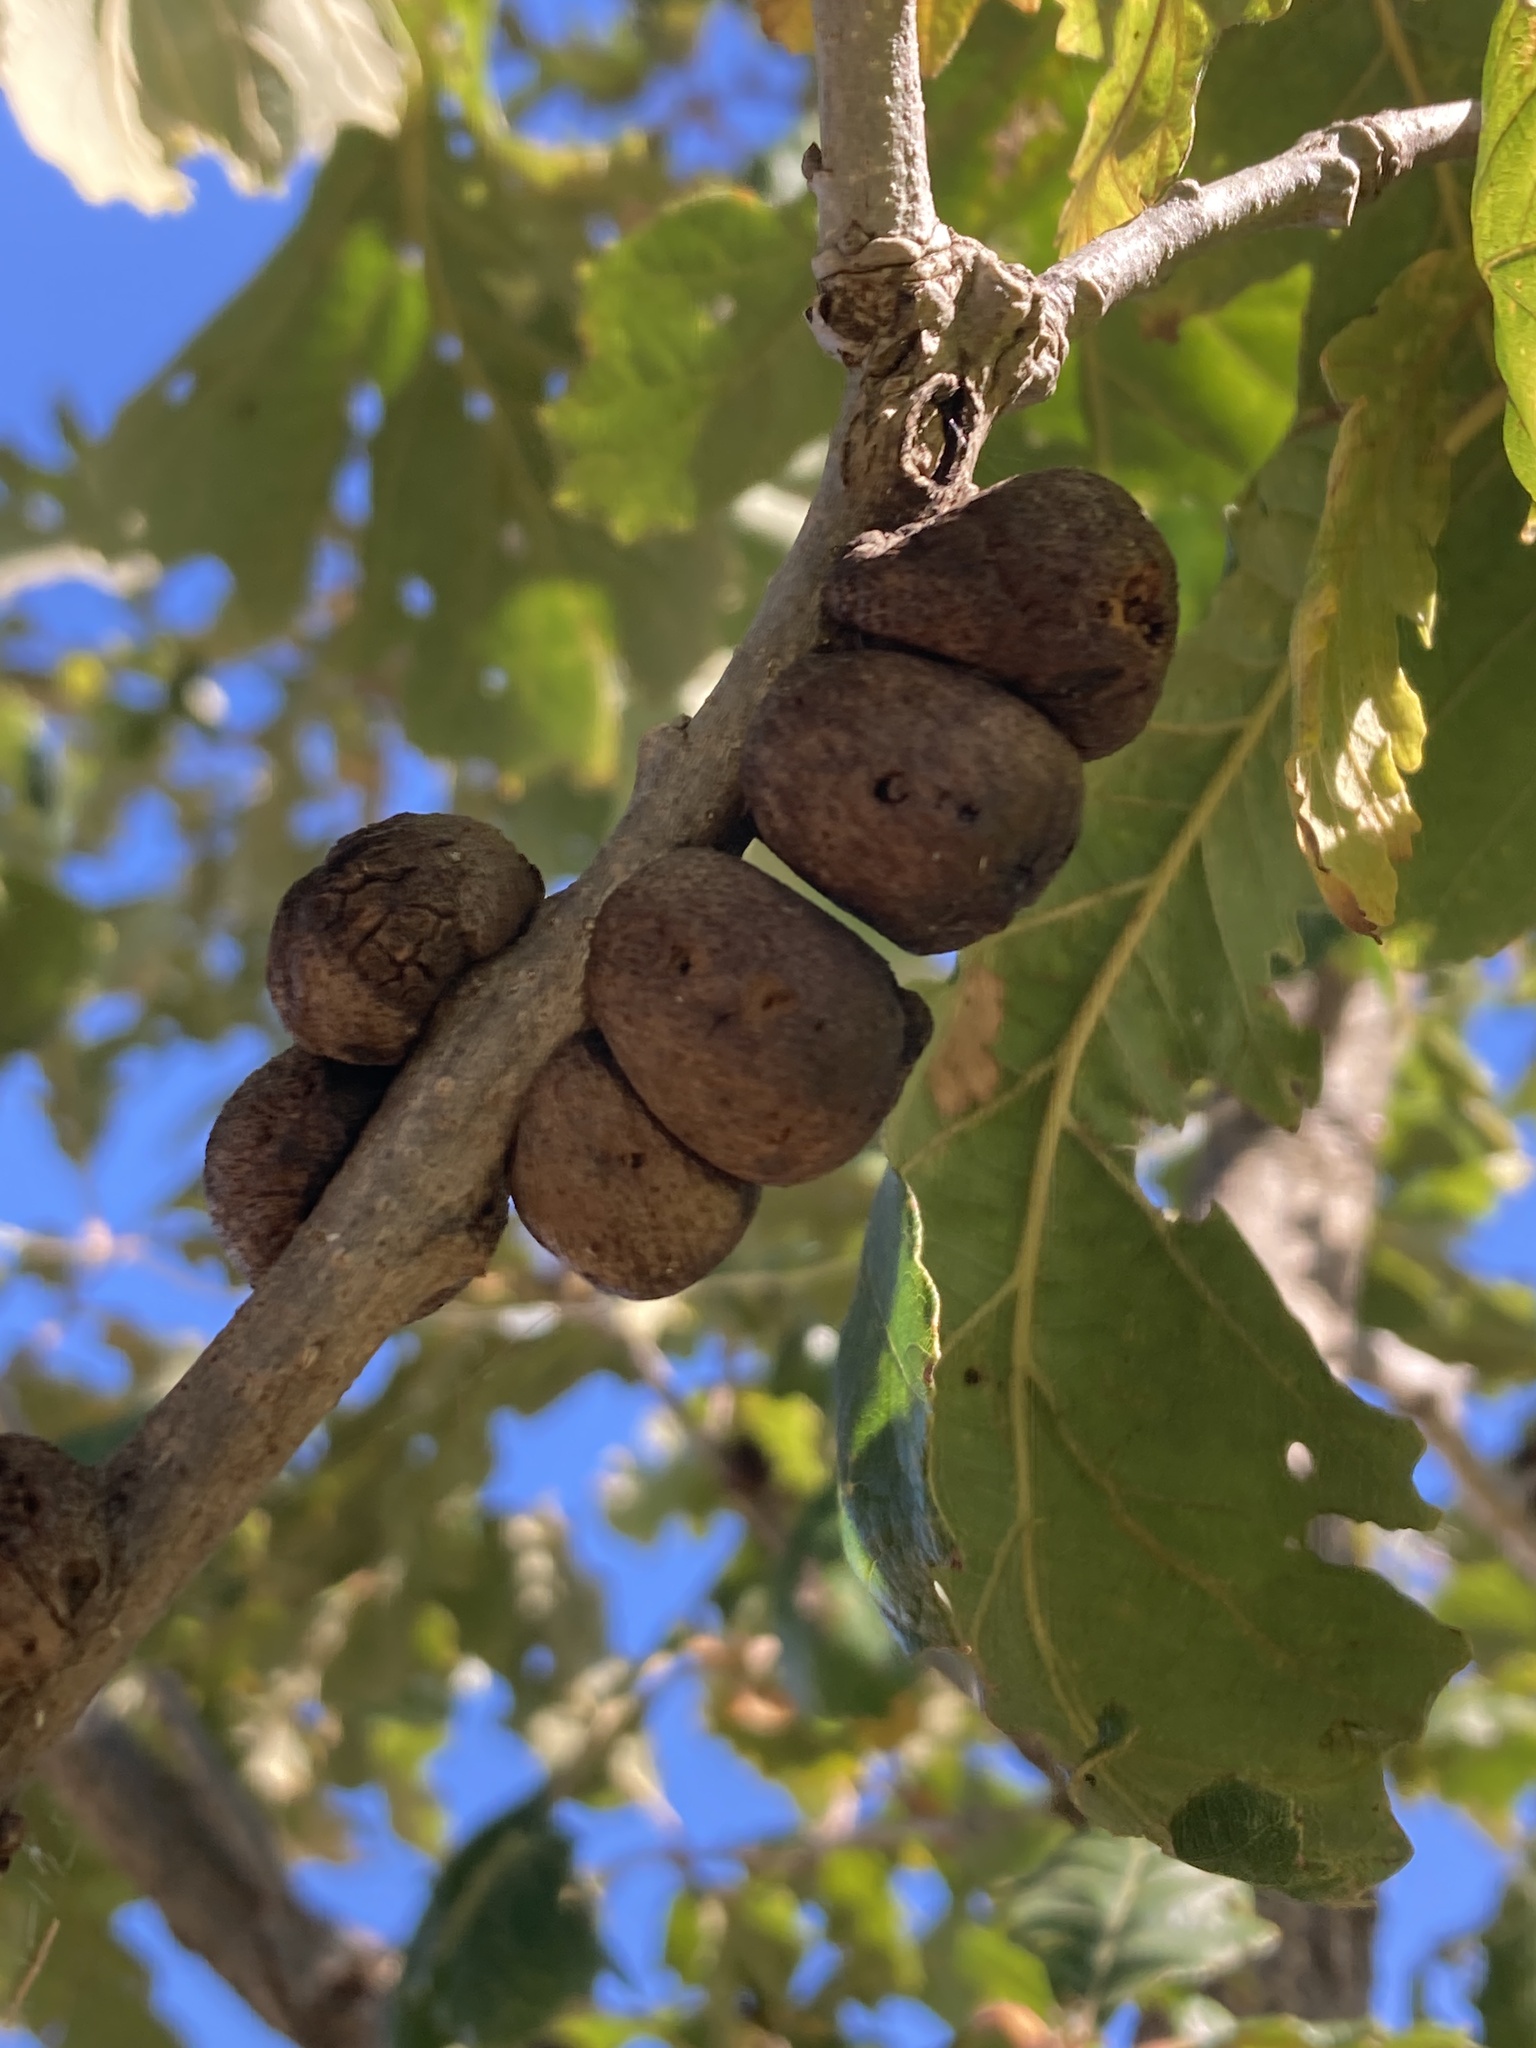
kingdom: Animalia
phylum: Arthropoda
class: Insecta
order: Hymenoptera
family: Cynipidae
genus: Disholcaspis
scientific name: Disholcaspis
